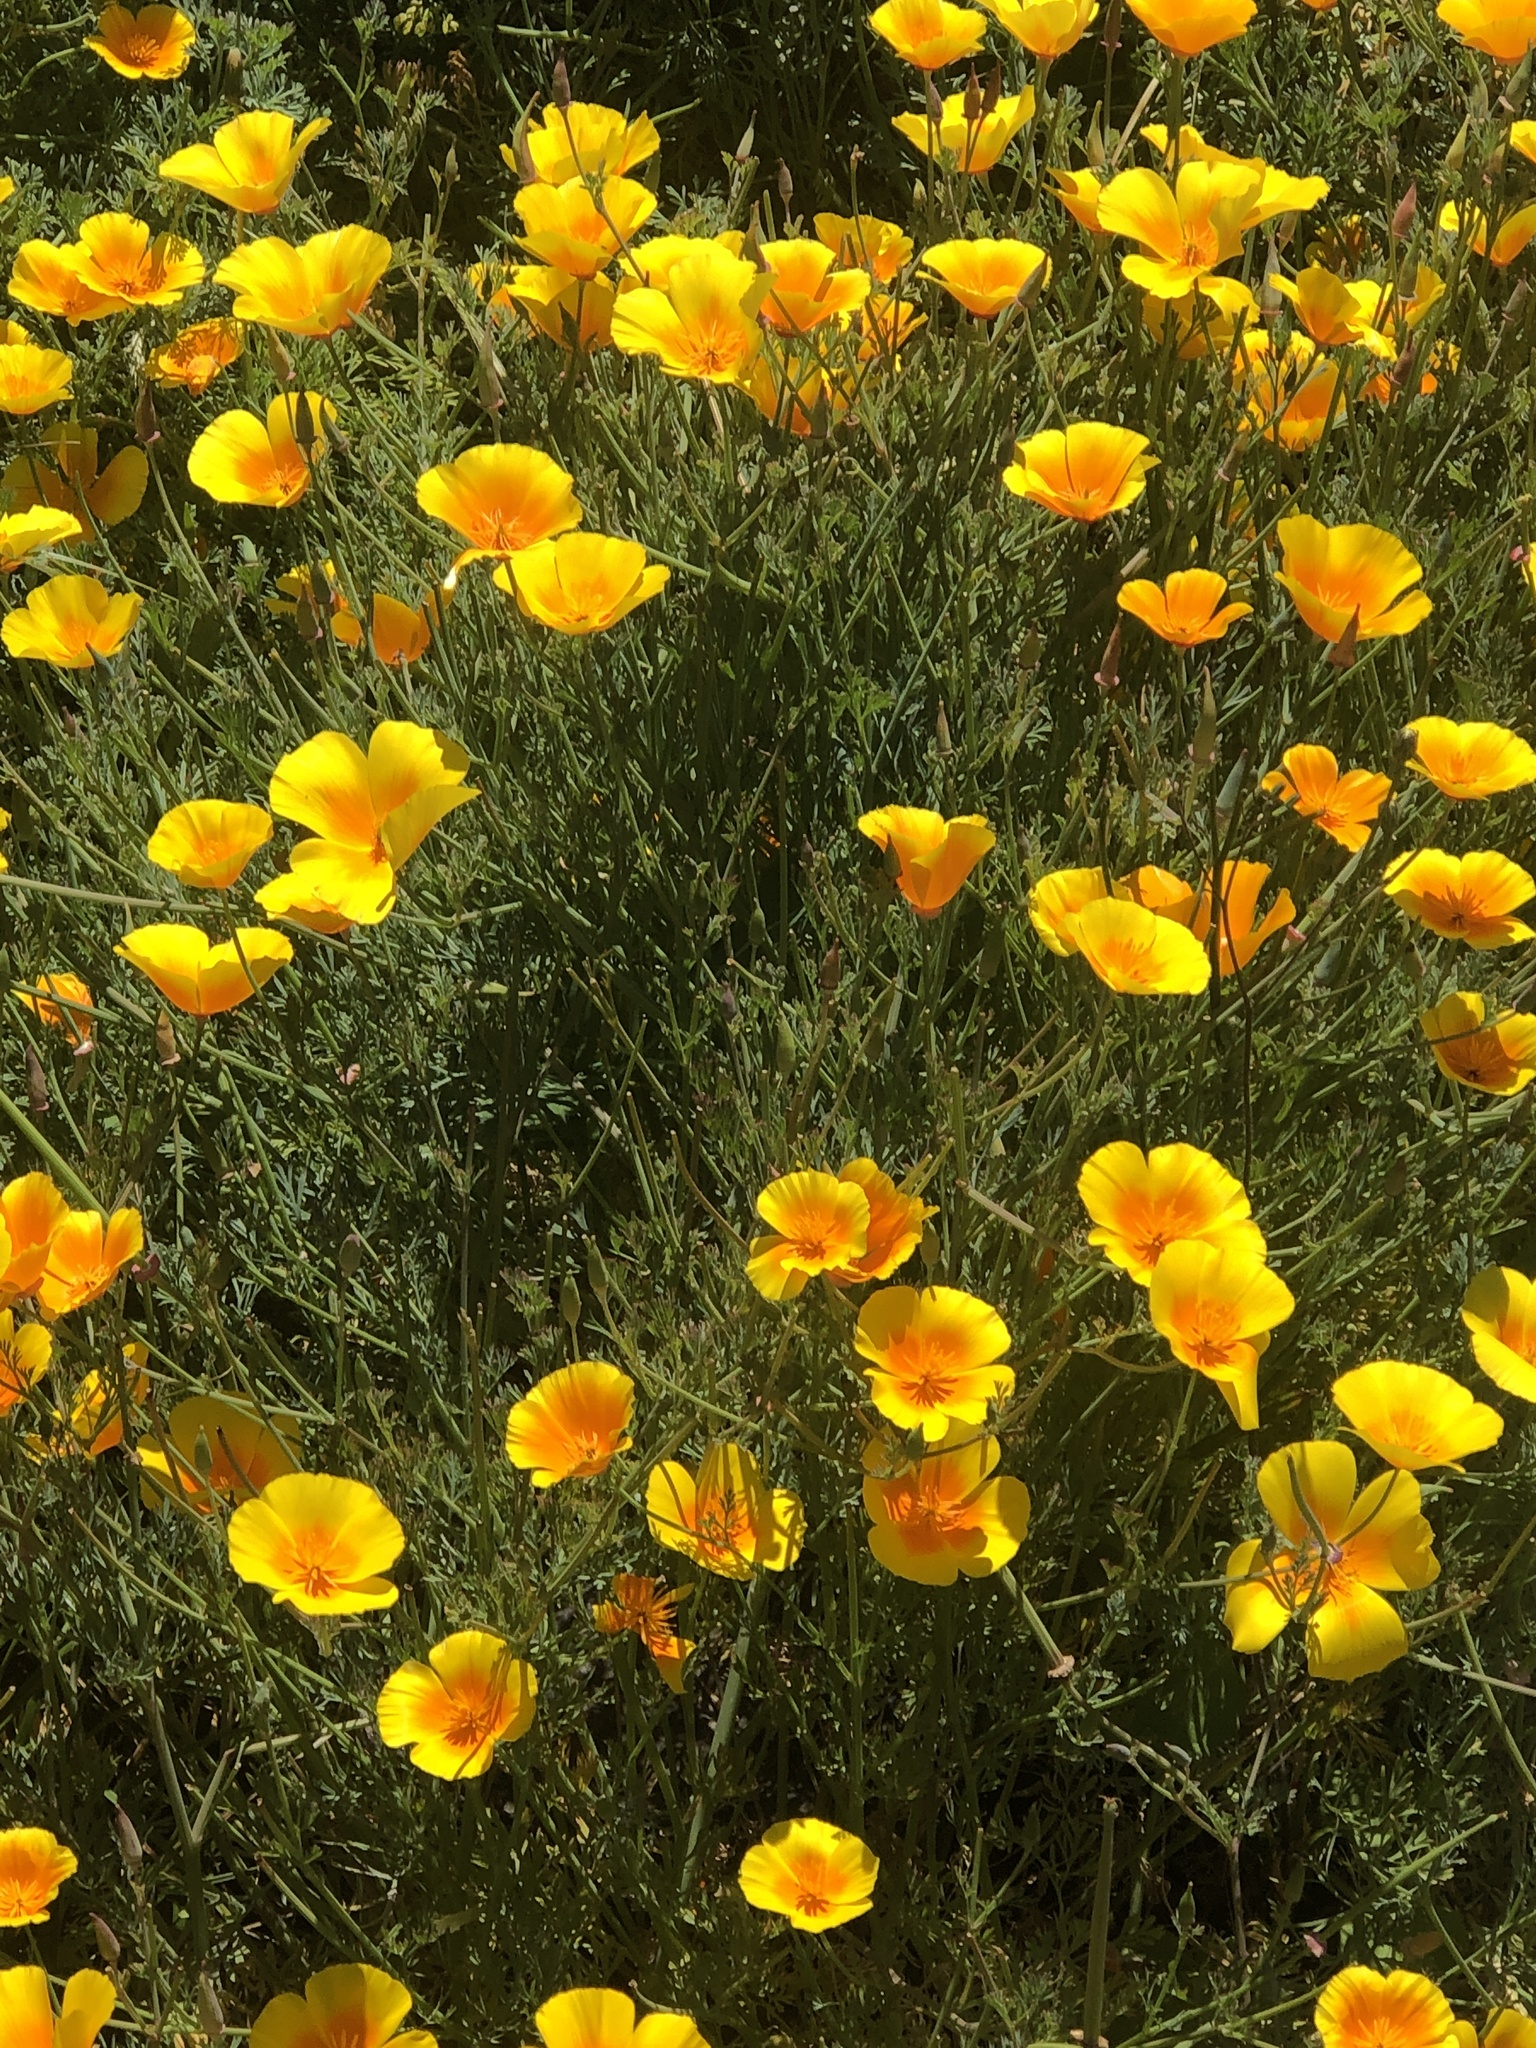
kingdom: Plantae
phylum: Tracheophyta
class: Magnoliopsida
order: Ranunculales
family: Papaveraceae
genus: Eschscholzia
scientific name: Eschscholzia californica
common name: California poppy
